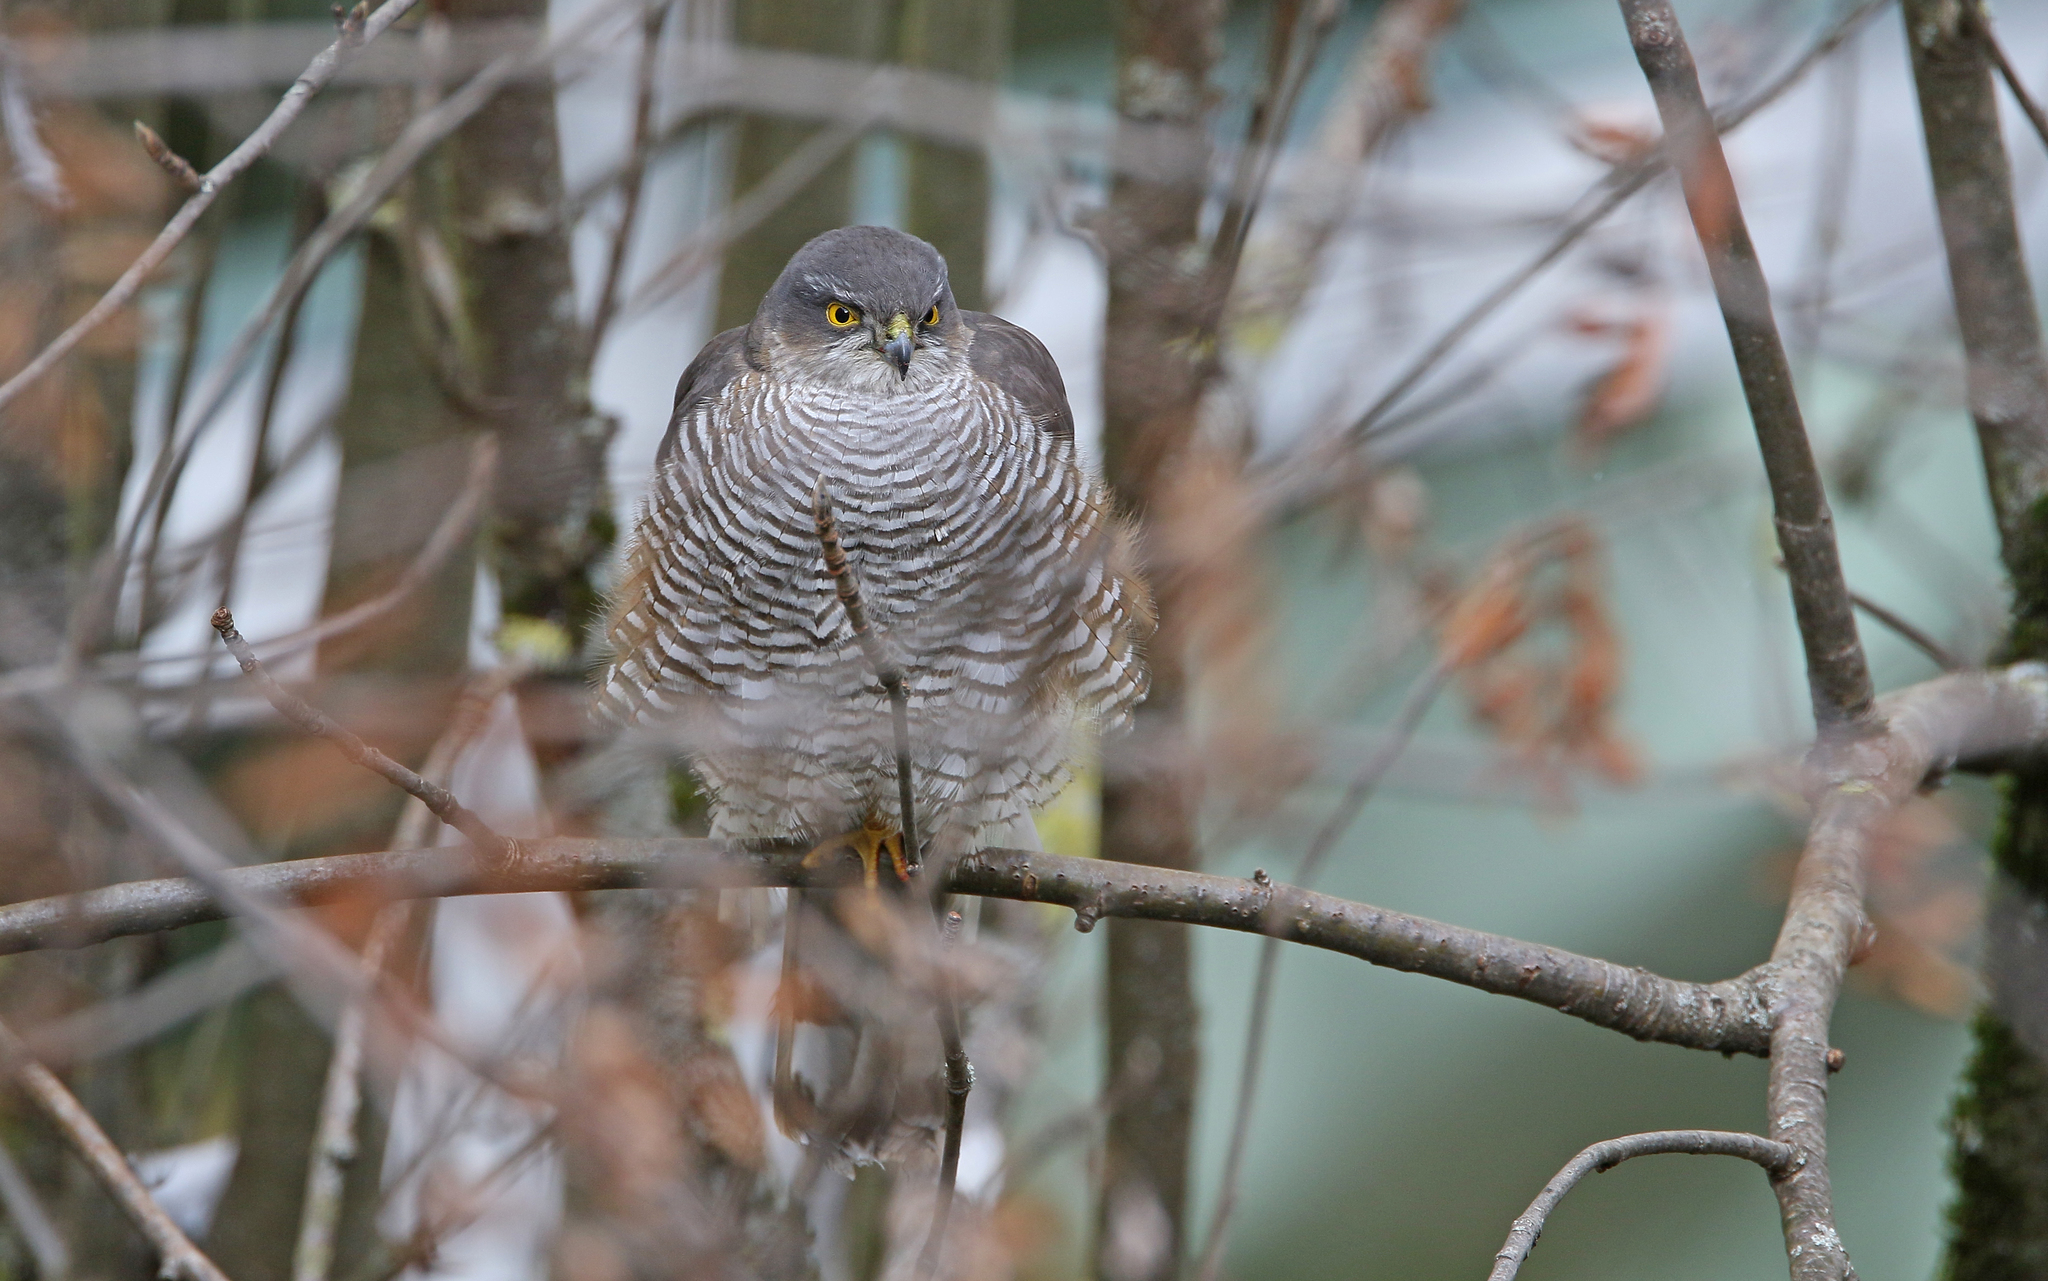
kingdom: Animalia
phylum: Chordata
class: Aves
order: Accipitriformes
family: Accipitridae
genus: Accipiter
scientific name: Accipiter nisus
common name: Eurasian sparrowhawk
